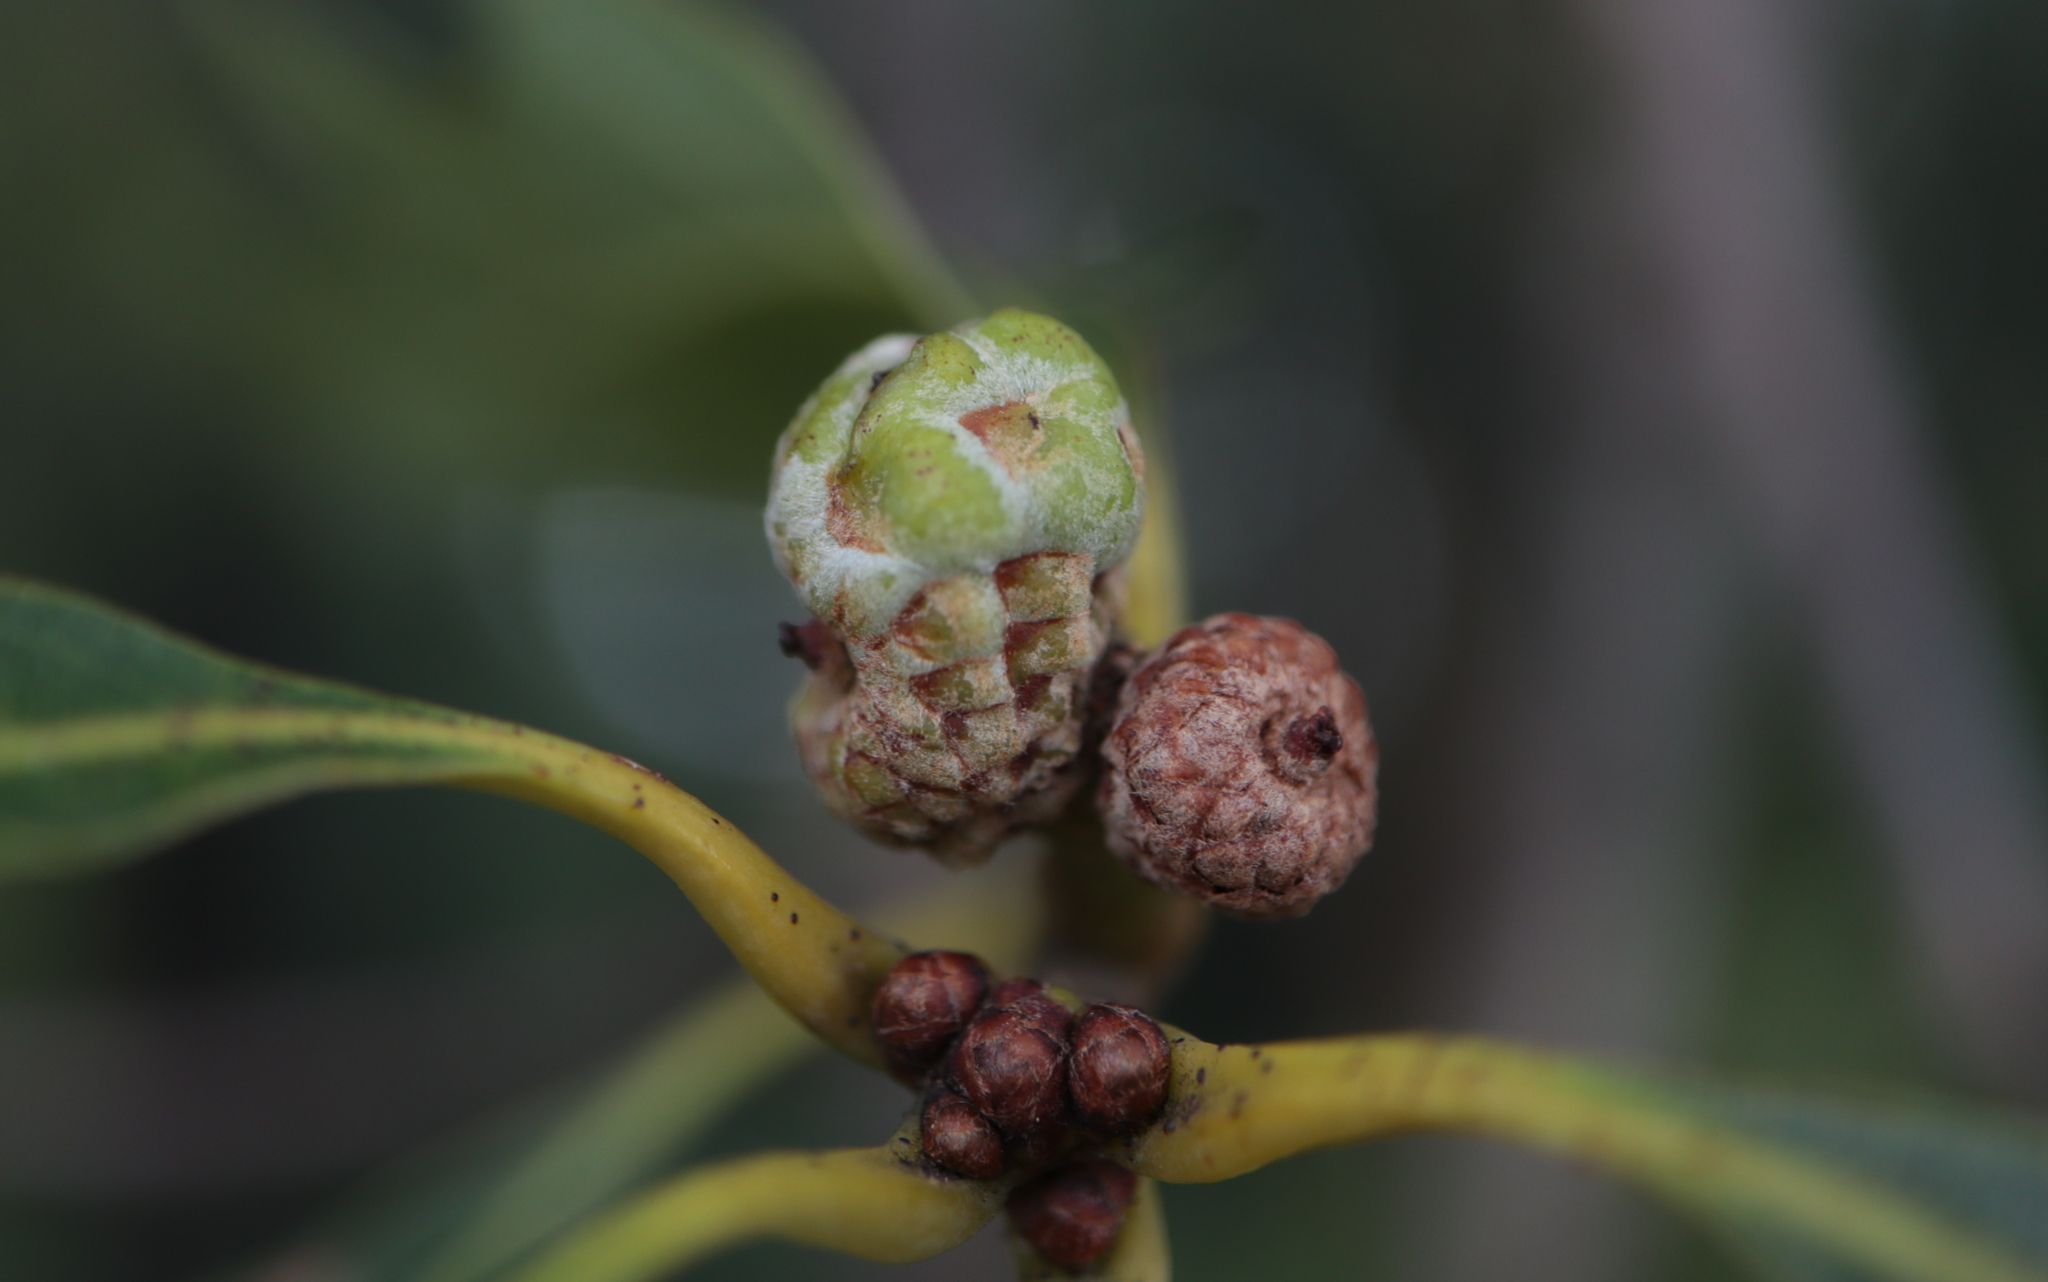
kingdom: Animalia
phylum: Arthropoda
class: Insecta
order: Hymenoptera
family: Cynipidae
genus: Callirhytis
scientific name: Callirhytis glandium
